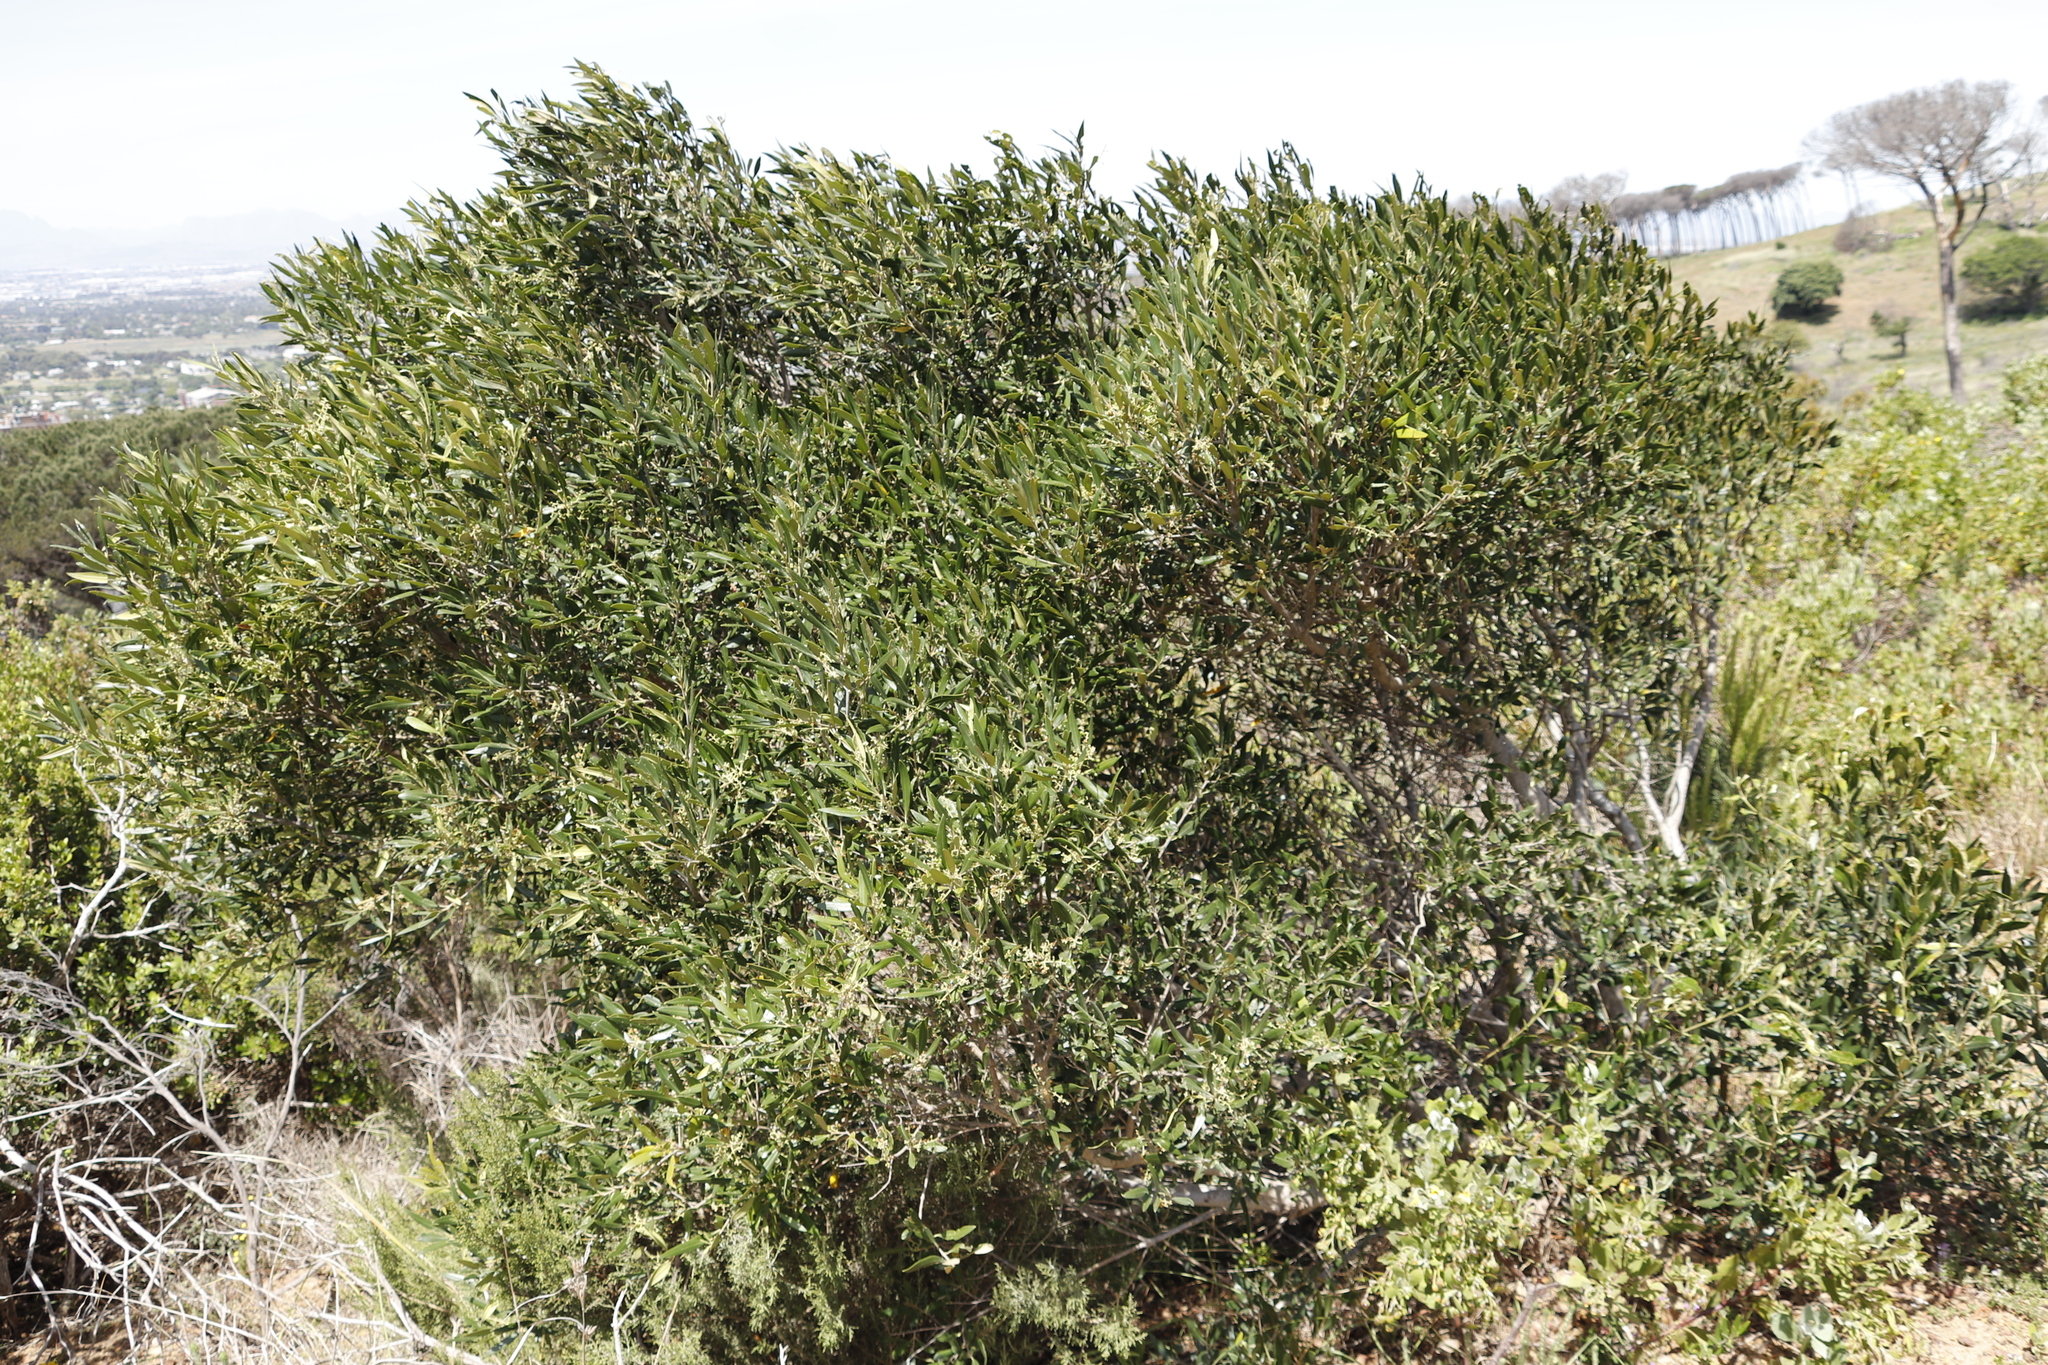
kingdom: Plantae
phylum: Tracheophyta
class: Magnoliopsida
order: Lamiales
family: Oleaceae
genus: Olea
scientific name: Olea europaea
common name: Olive
